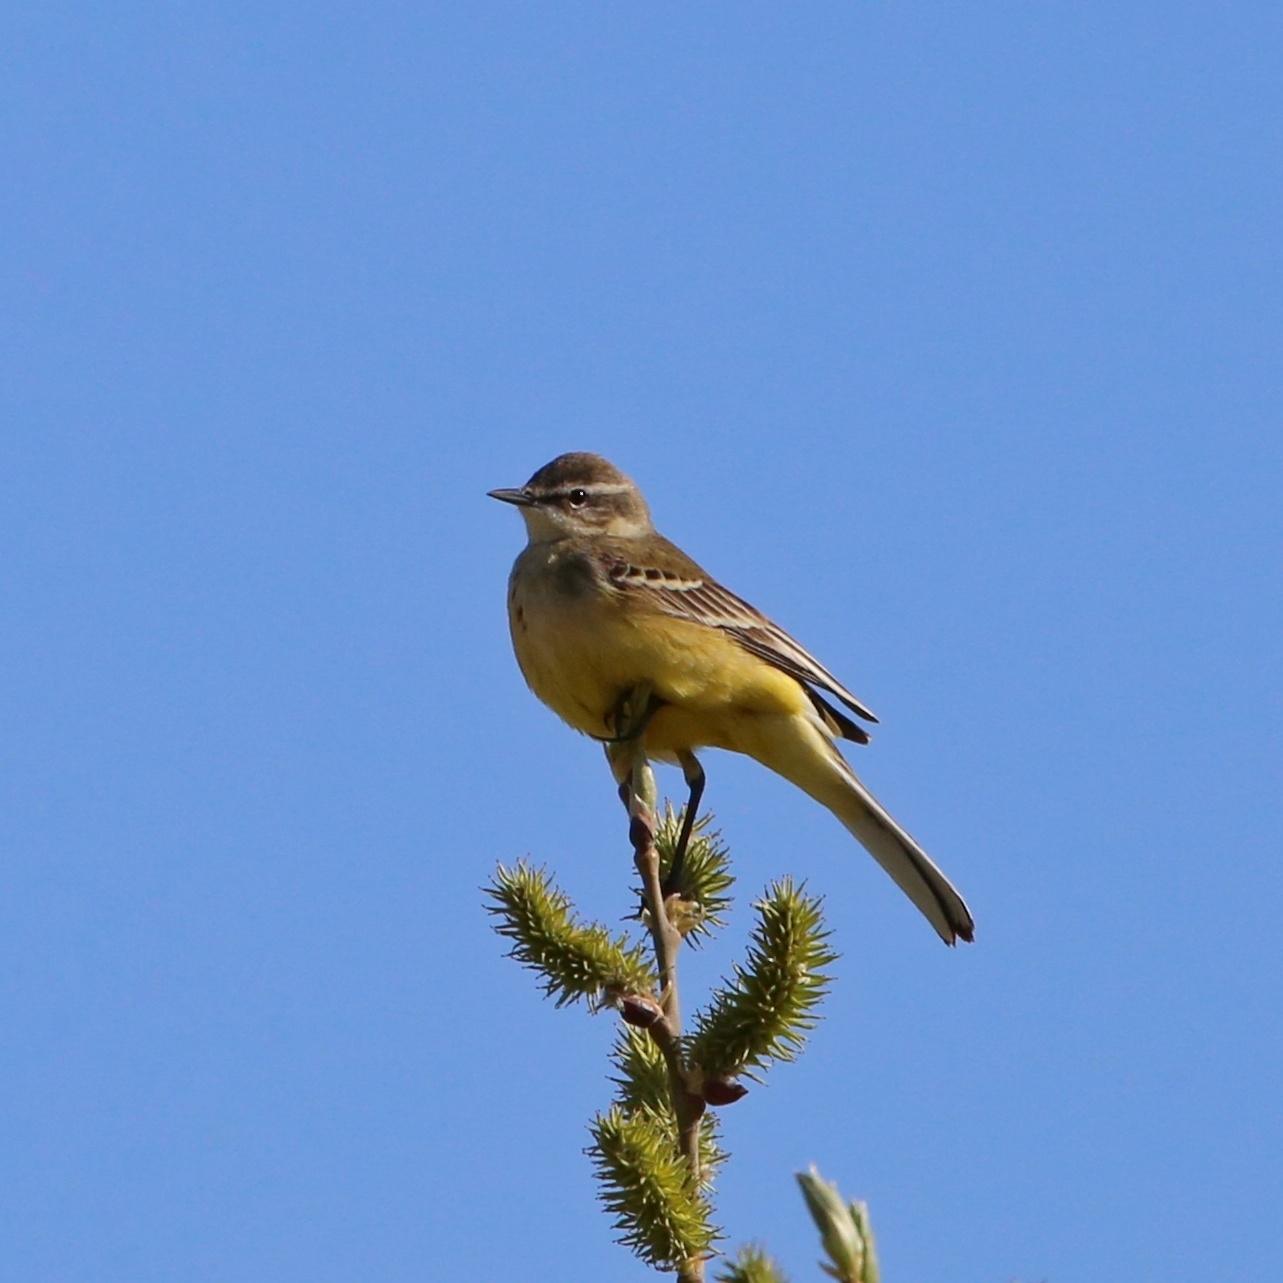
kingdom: Animalia
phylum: Chordata
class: Aves
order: Passeriformes
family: Motacillidae
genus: Motacilla
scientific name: Motacilla flava
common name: Western yellow wagtail
